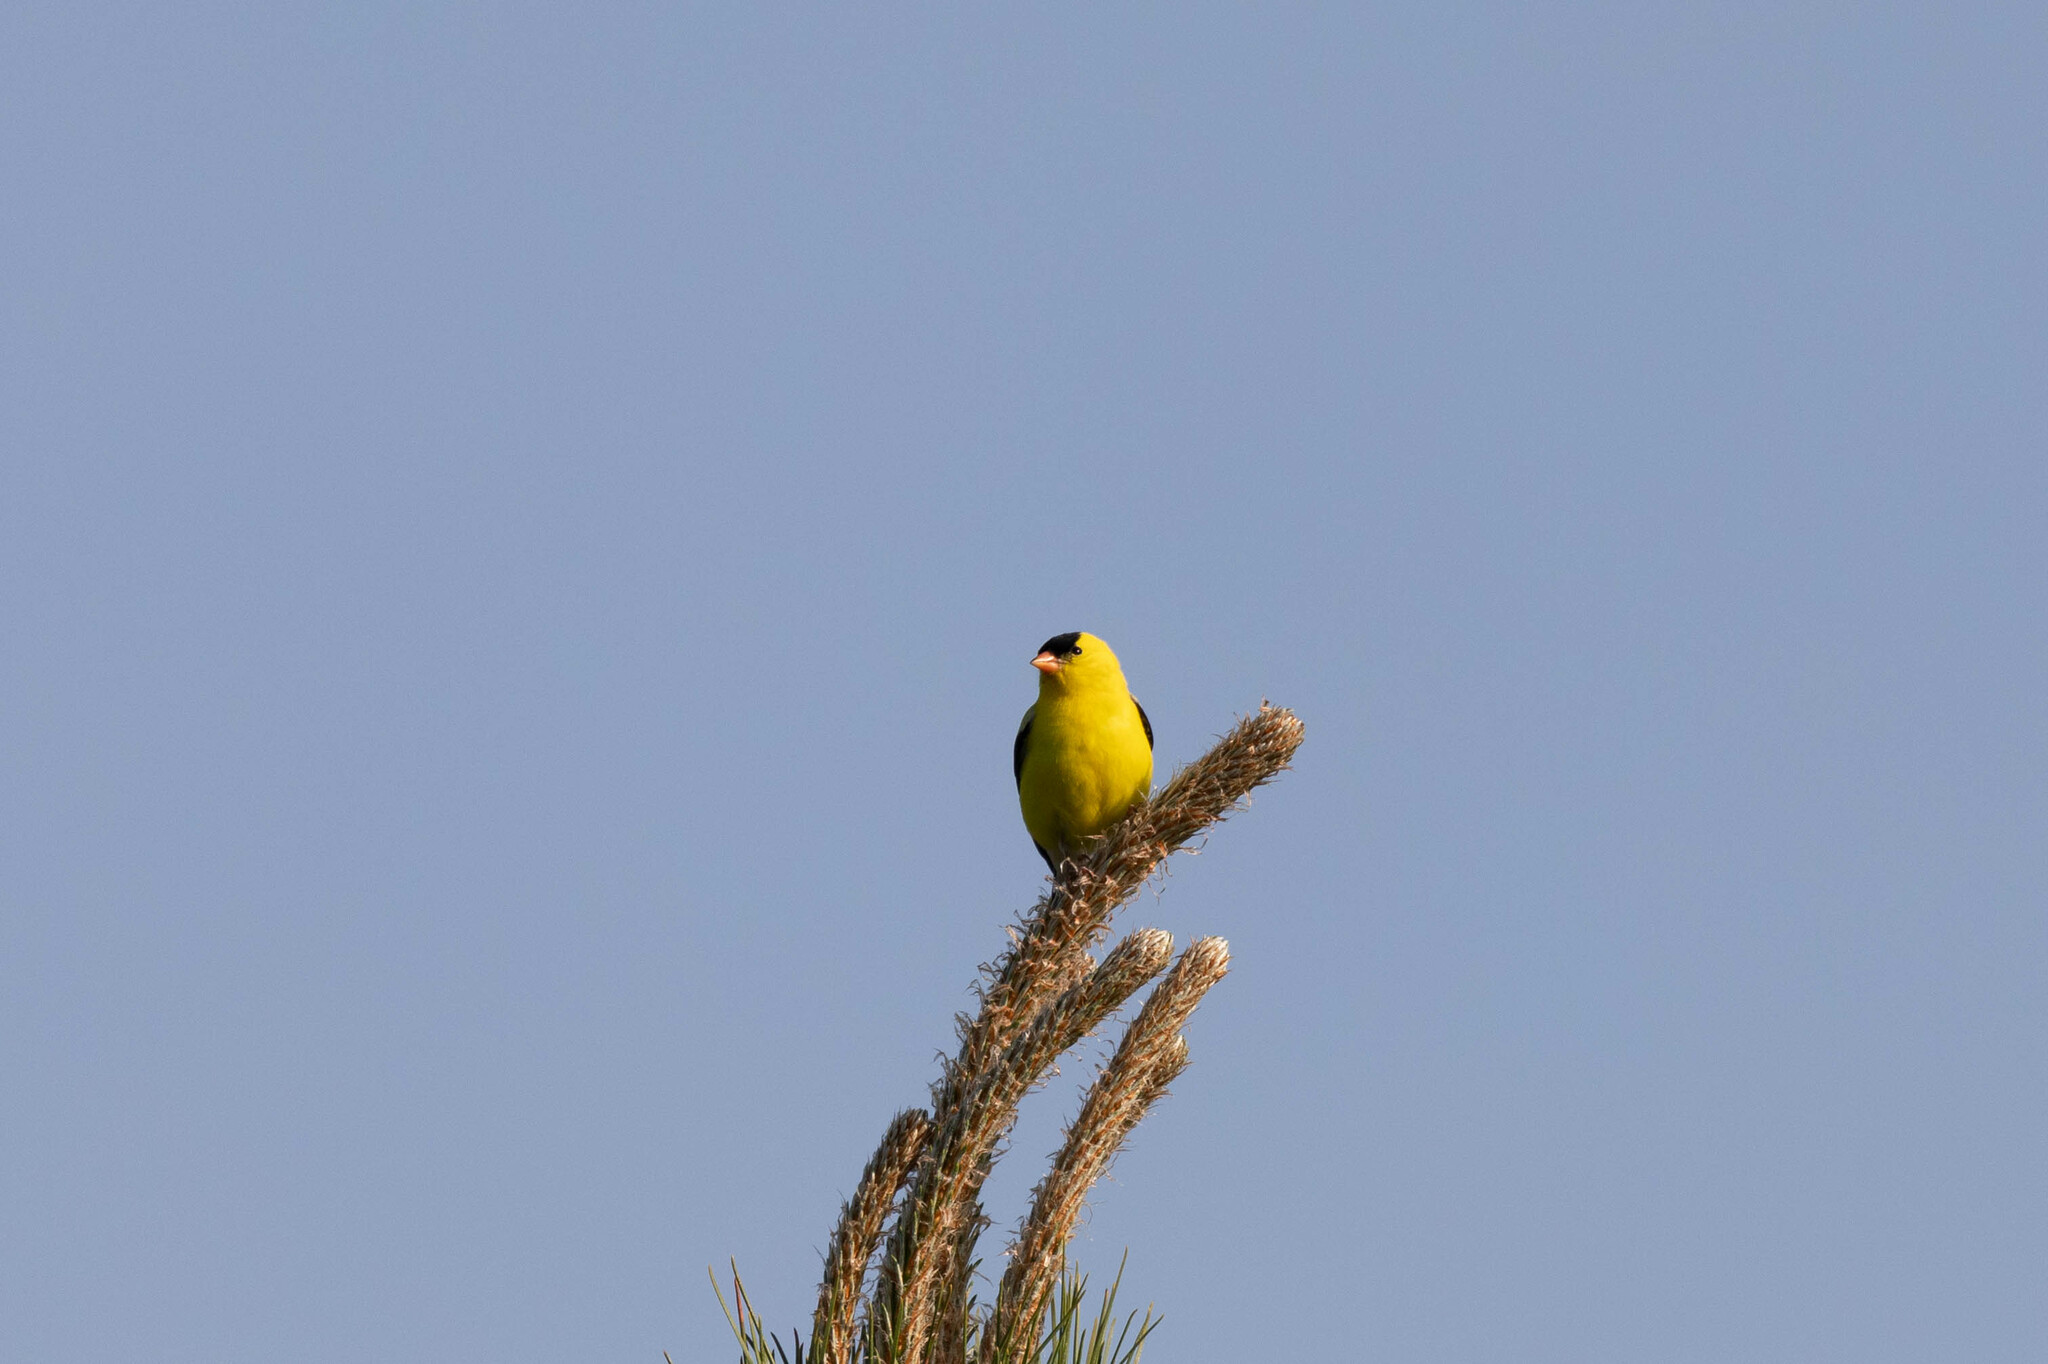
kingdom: Animalia
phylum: Chordata
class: Aves
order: Passeriformes
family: Fringillidae
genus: Spinus
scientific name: Spinus tristis
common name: American goldfinch
